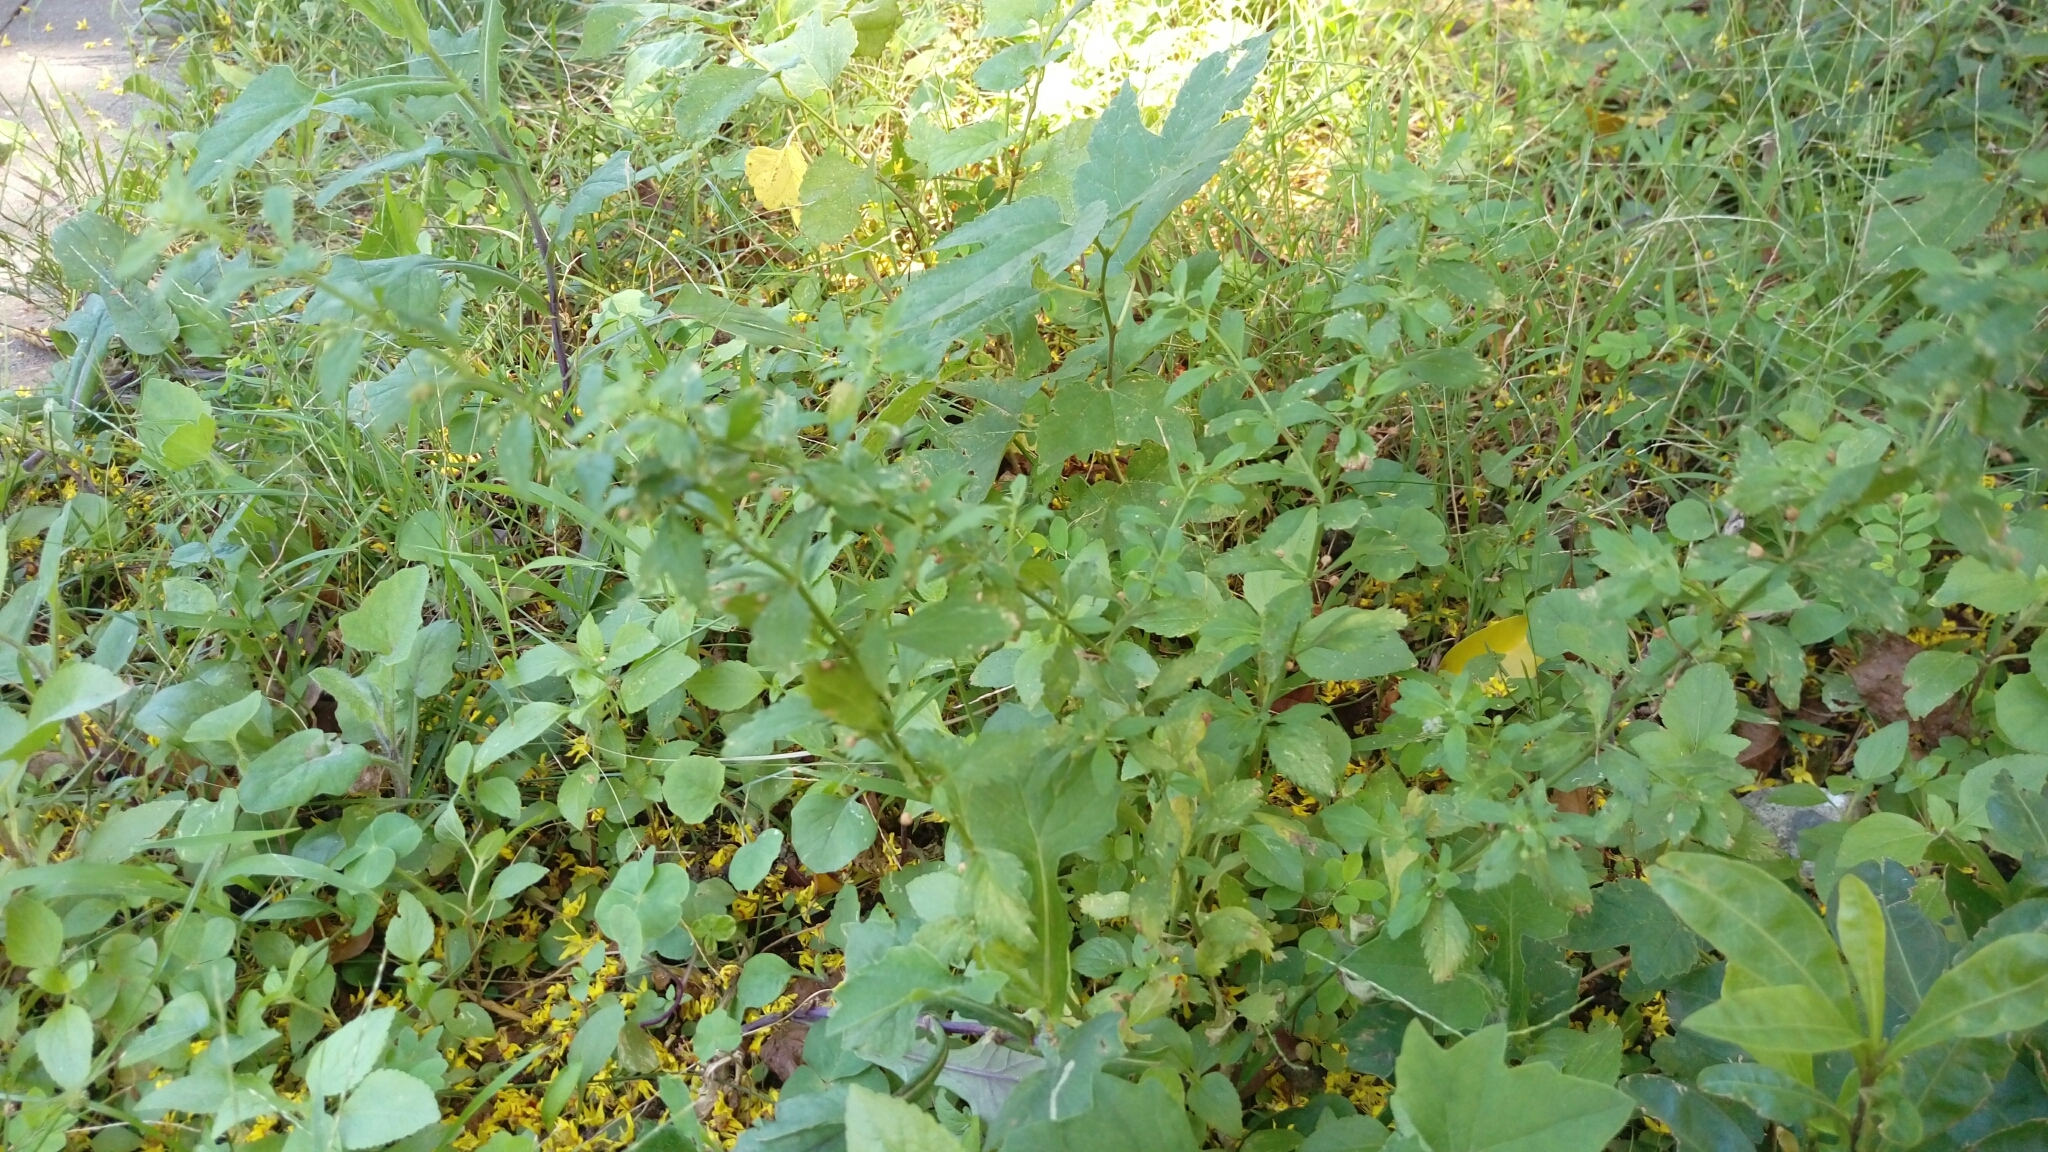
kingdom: Plantae
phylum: Tracheophyta
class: Magnoliopsida
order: Lamiales
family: Plantaginaceae
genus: Scoparia
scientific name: Scoparia dulcis
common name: Scoparia-weed
